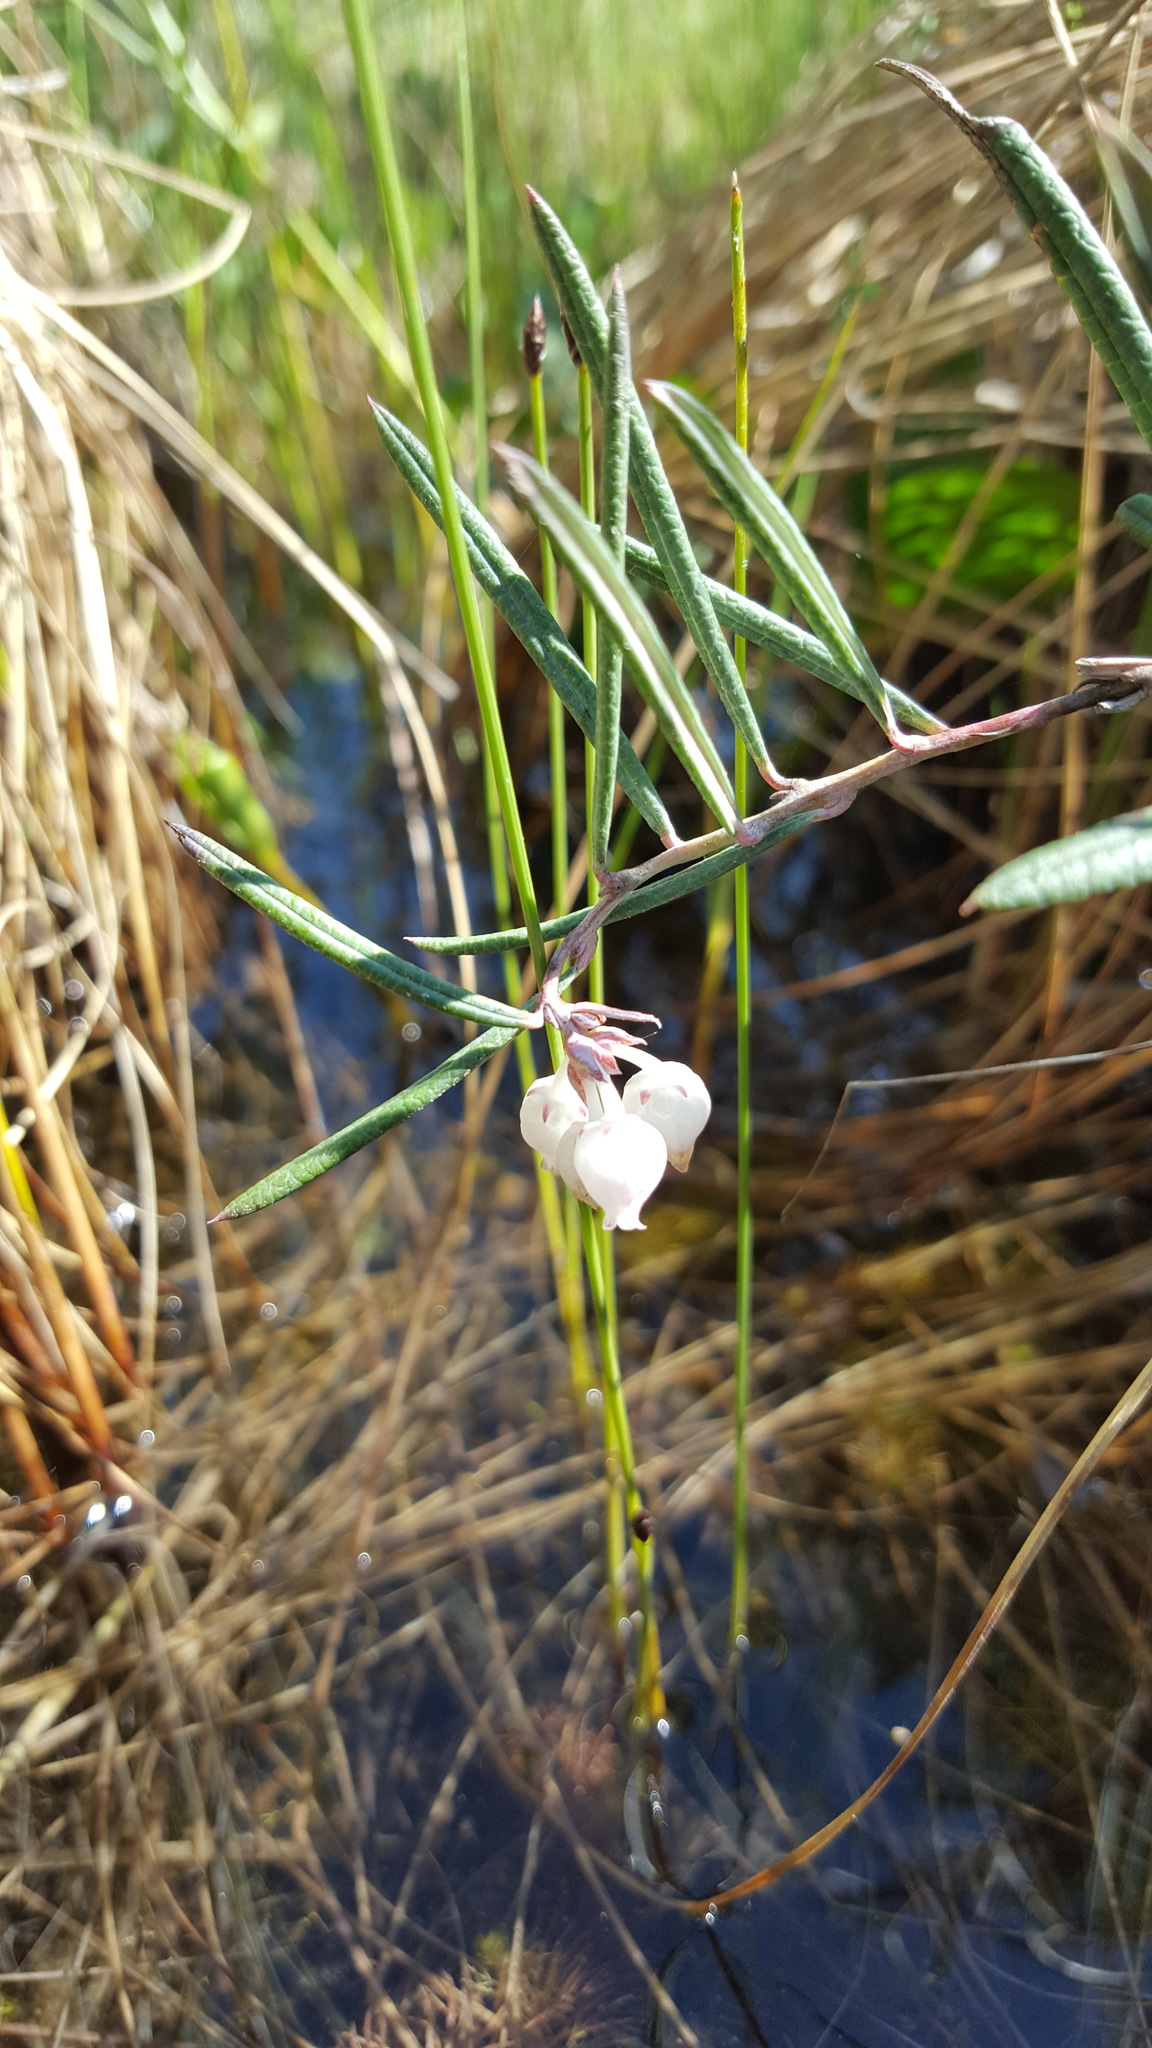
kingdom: Plantae
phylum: Tracheophyta
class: Magnoliopsida
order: Ericales
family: Ericaceae
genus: Andromeda
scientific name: Andromeda polifolia
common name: Bog-rosemary
